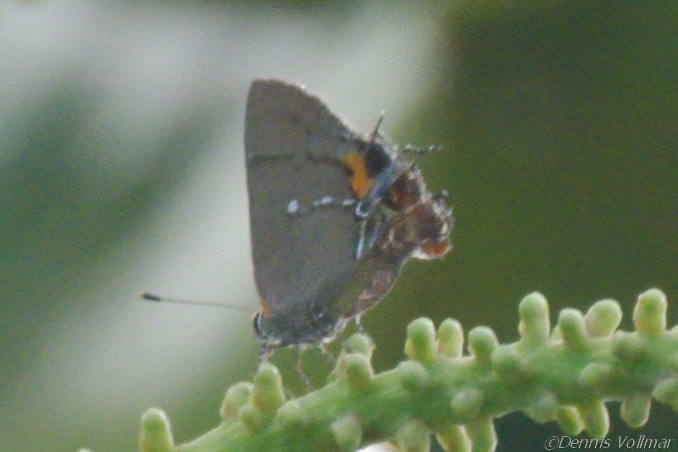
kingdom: Animalia
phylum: Arthropoda
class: Insecta
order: Lepidoptera
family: Lycaenidae
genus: Thecla
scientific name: Thecla angelia
